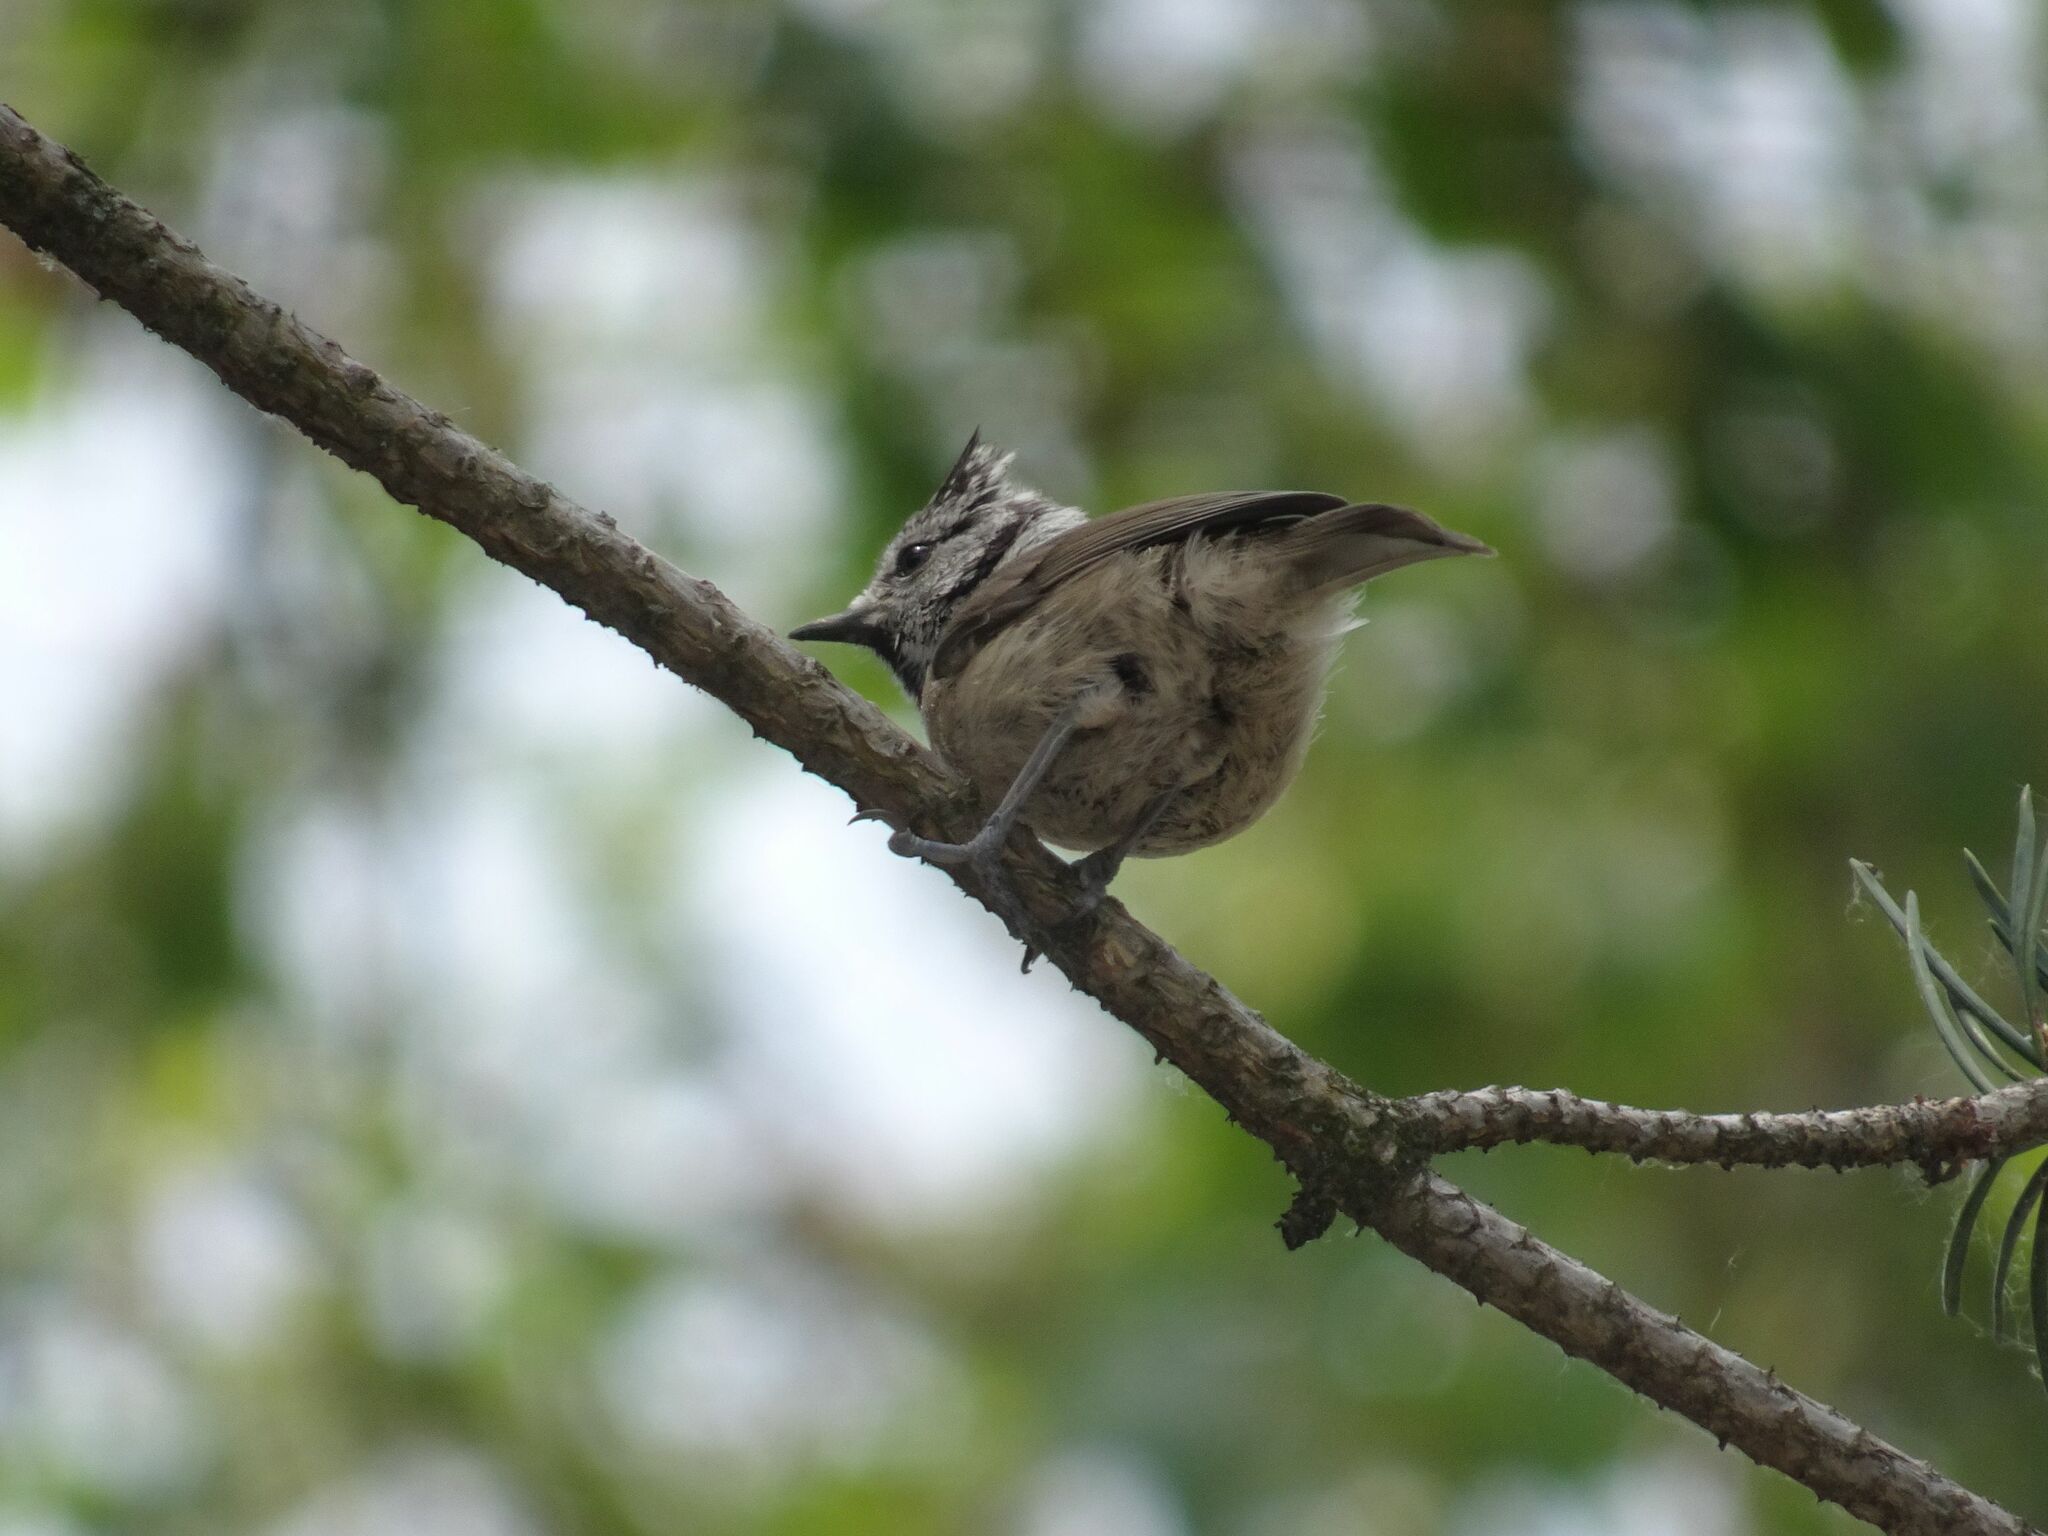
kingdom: Animalia
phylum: Chordata
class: Aves
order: Passeriformes
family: Paridae
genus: Lophophanes
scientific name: Lophophanes cristatus
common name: European crested tit
